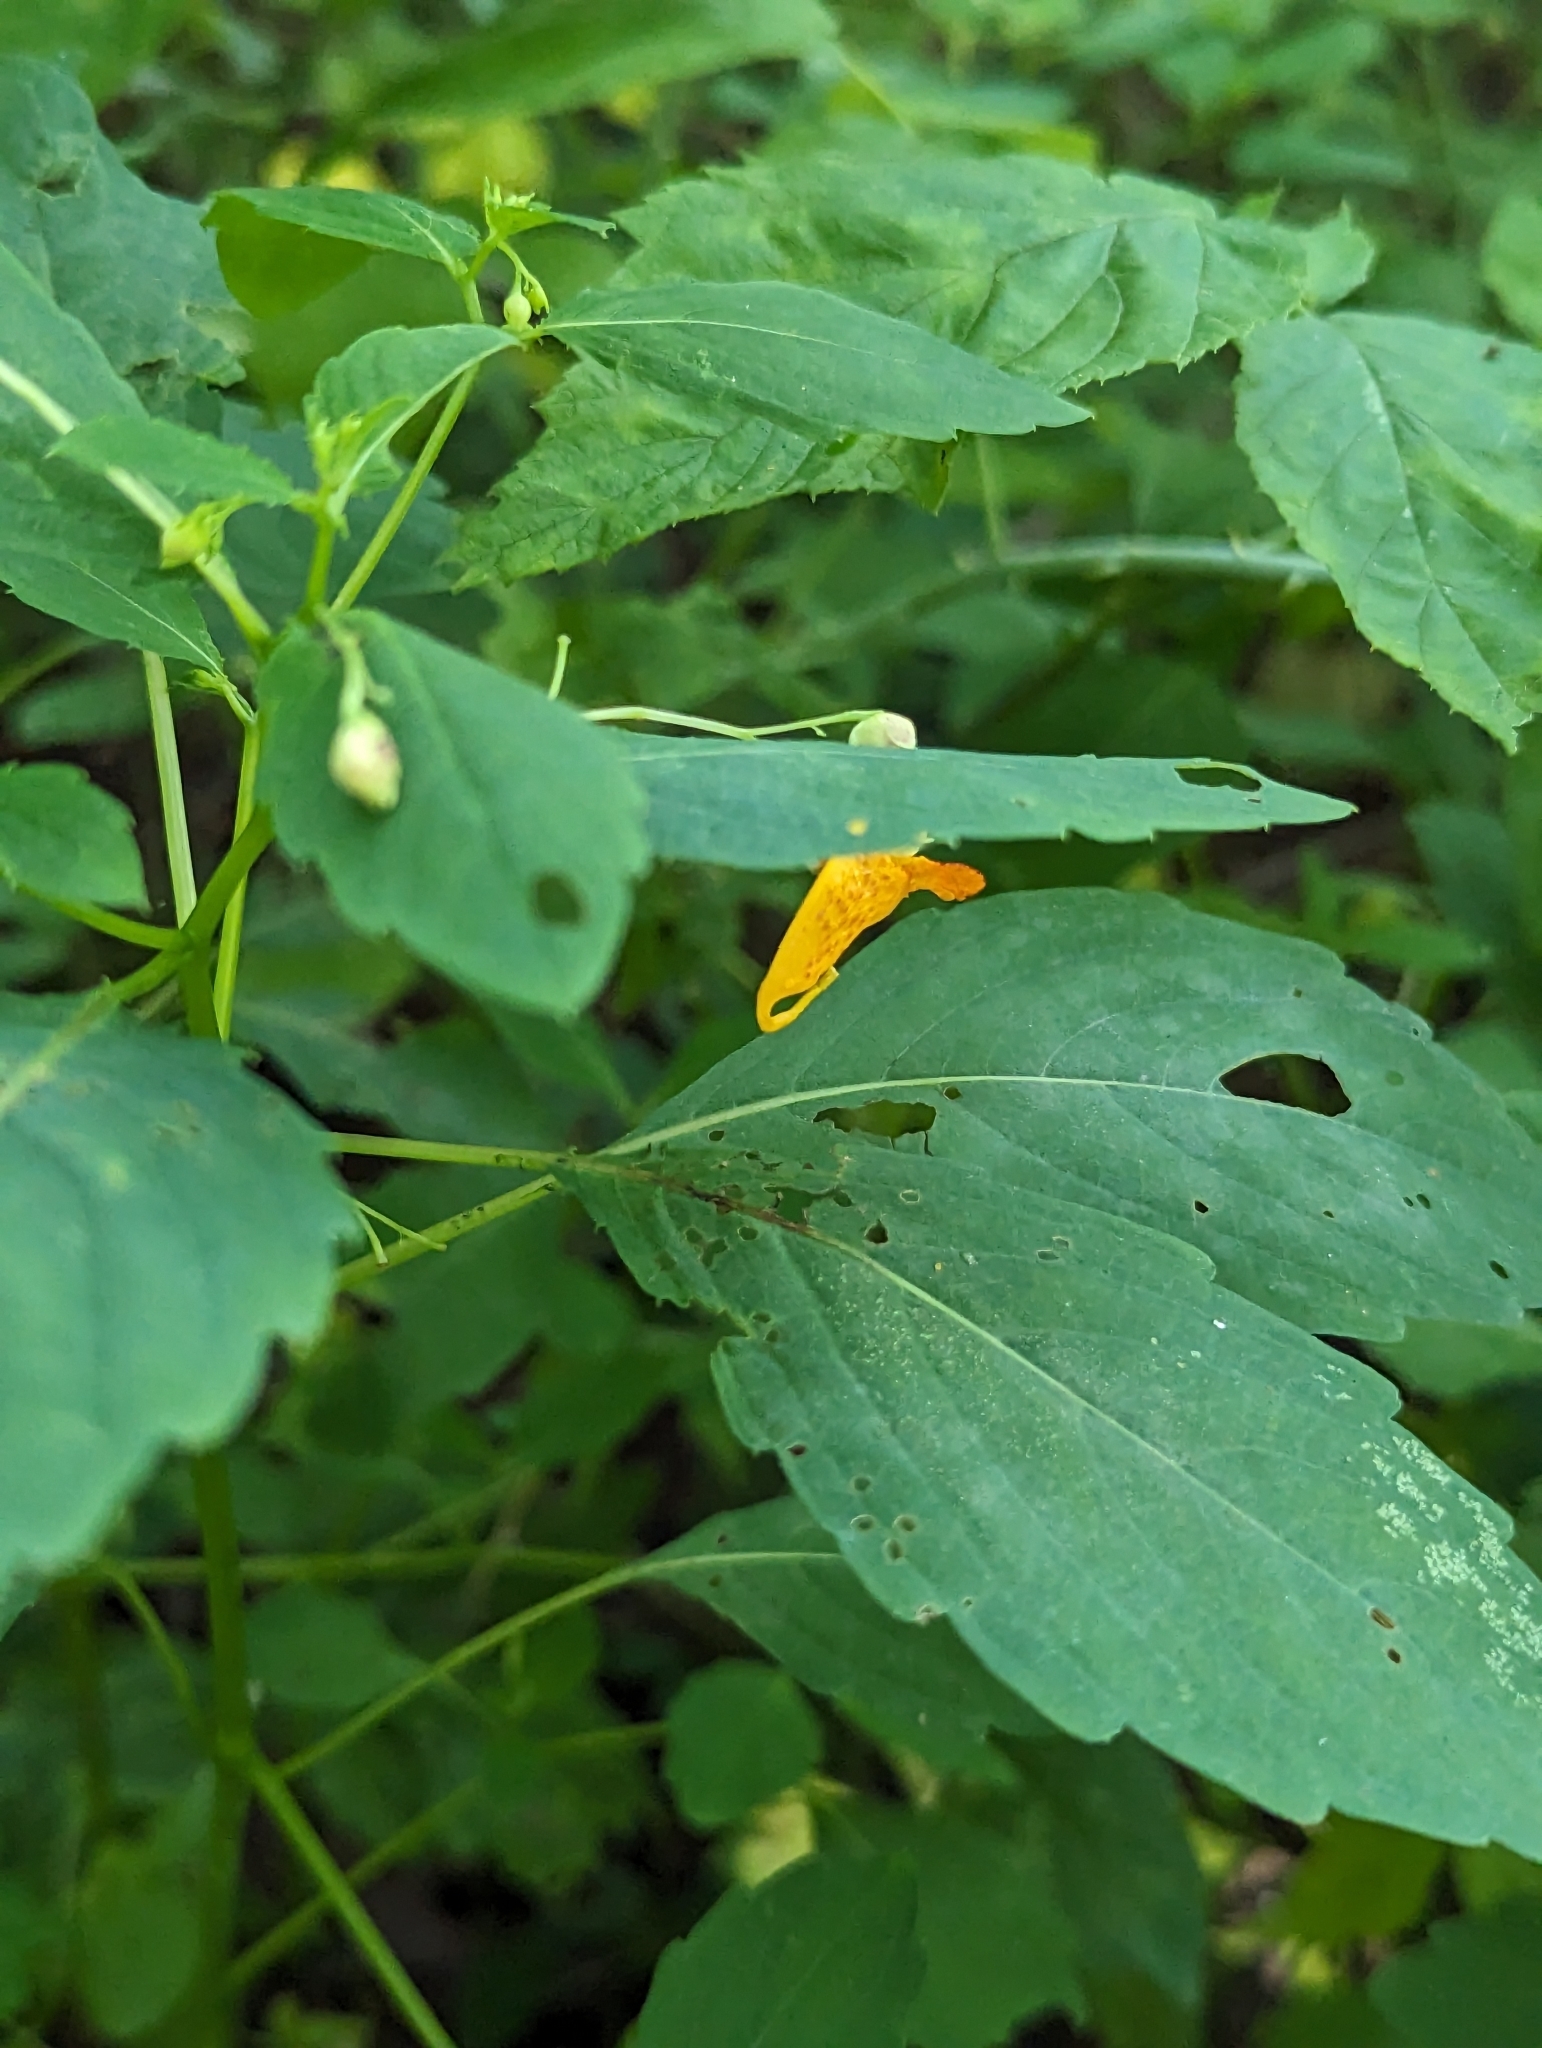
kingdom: Plantae
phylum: Tracheophyta
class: Magnoliopsida
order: Ericales
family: Balsaminaceae
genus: Impatiens
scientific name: Impatiens capensis
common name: Orange balsam
